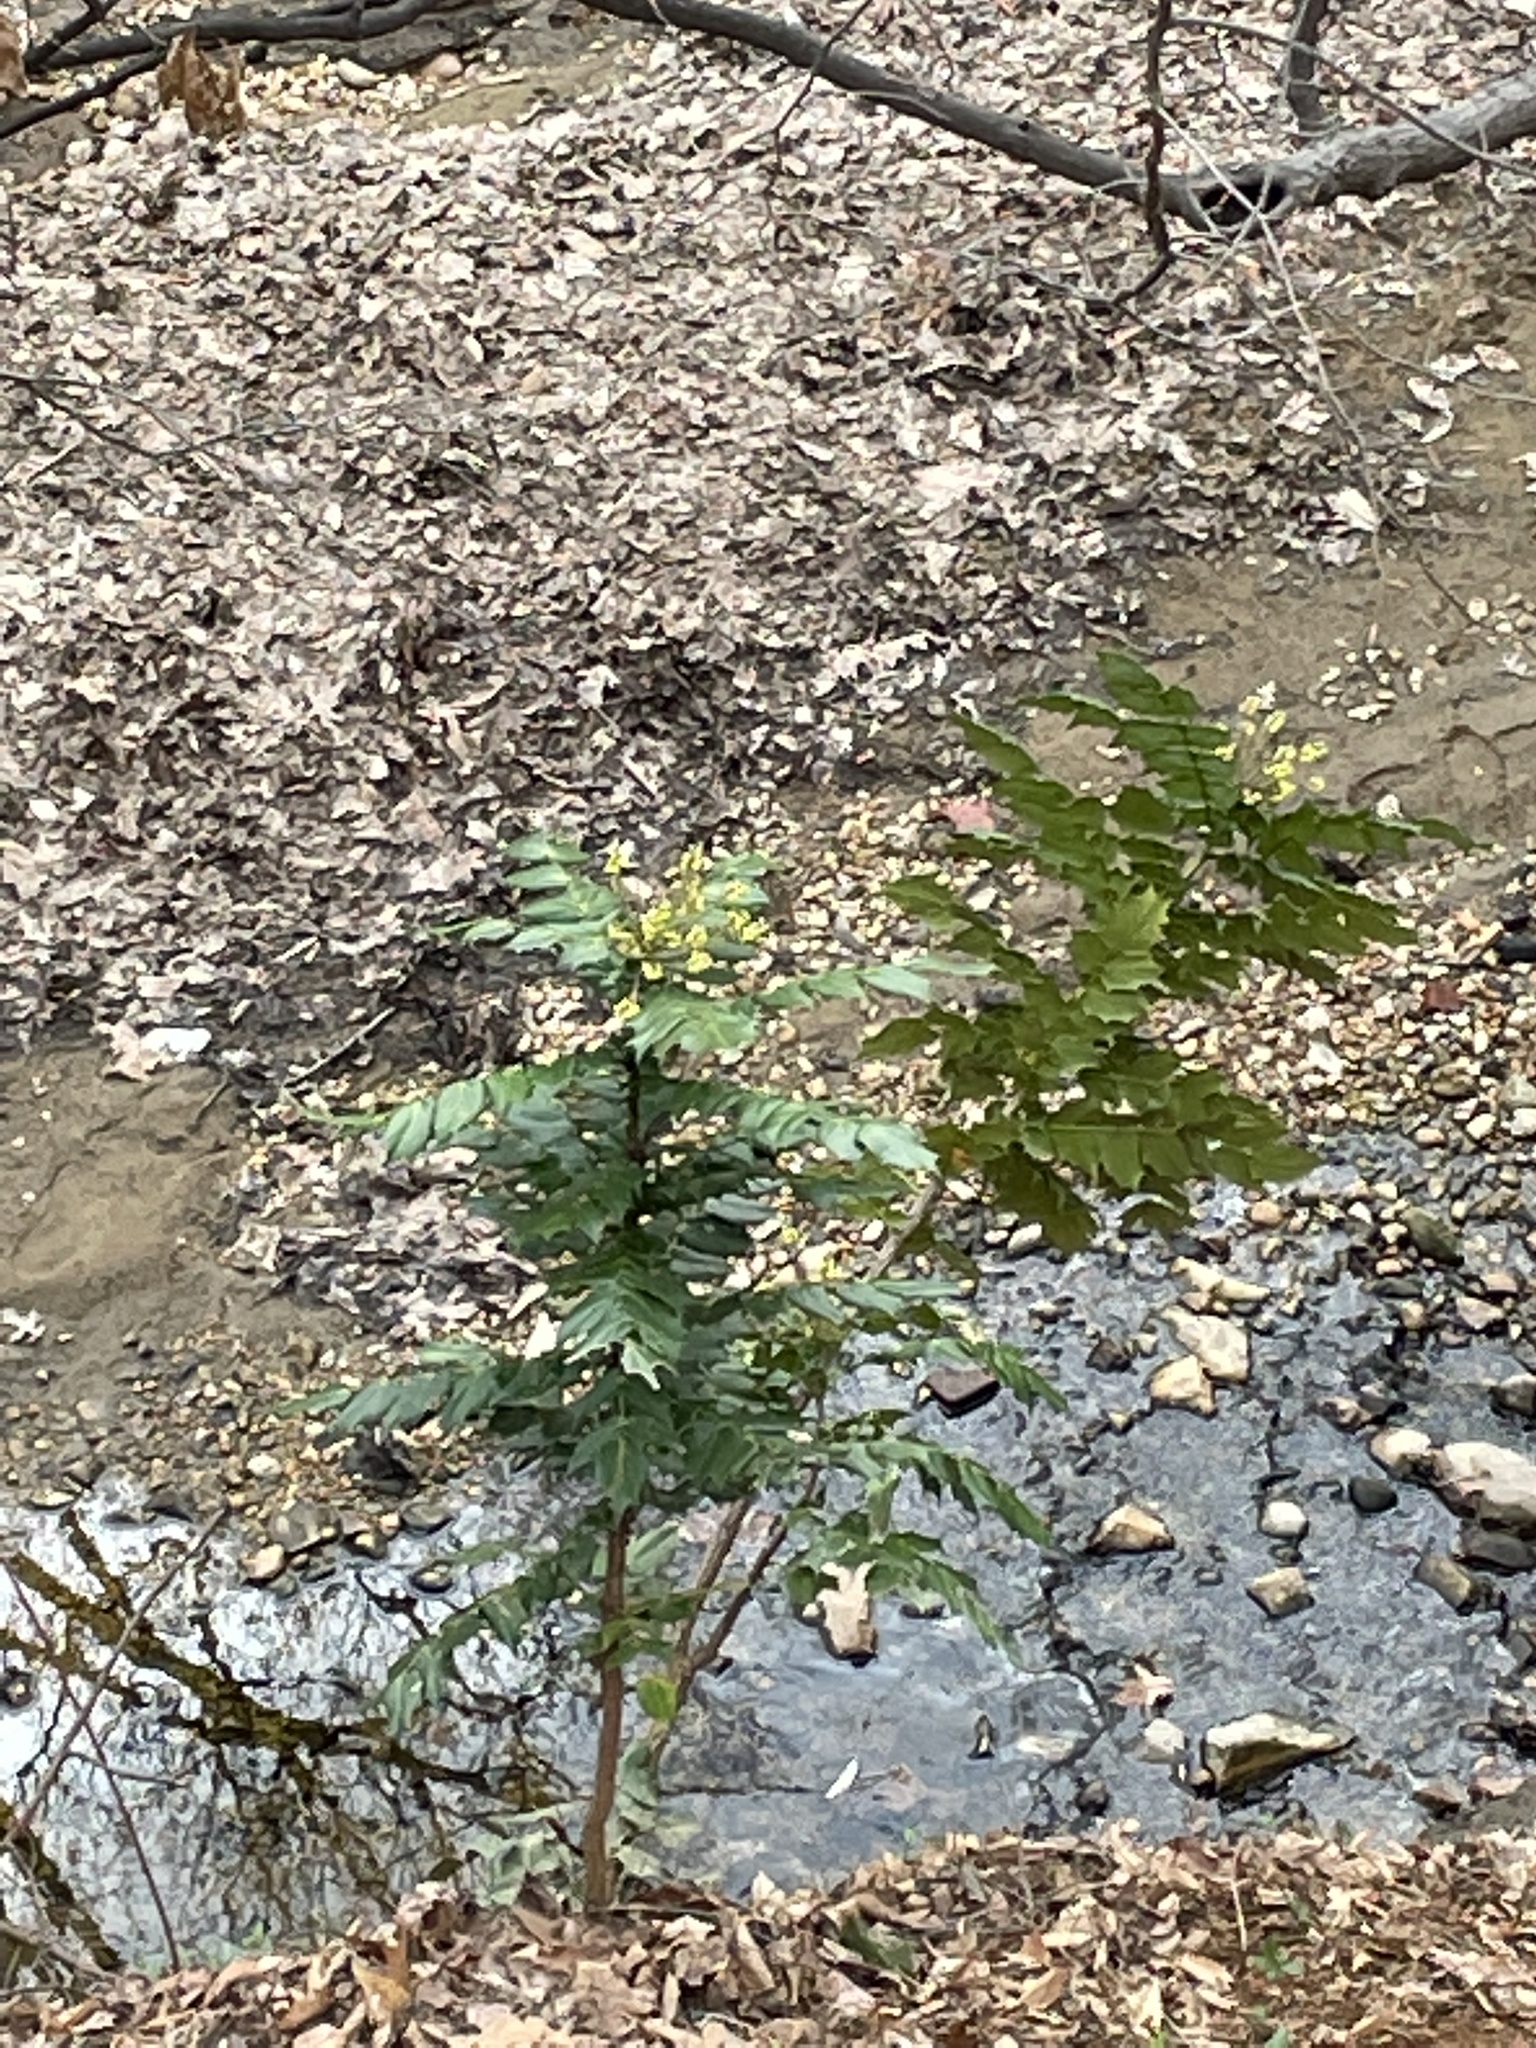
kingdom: Plantae
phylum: Tracheophyta
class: Magnoliopsida
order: Ranunculales
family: Berberidaceae
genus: Mahonia
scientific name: Mahonia bealei
